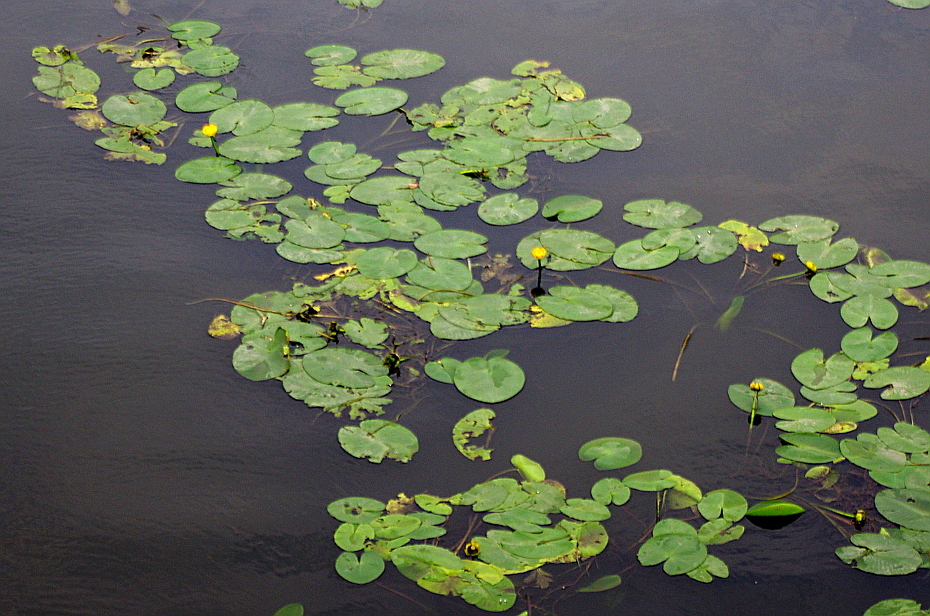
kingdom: Plantae
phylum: Tracheophyta
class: Magnoliopsida
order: Nymphaeales
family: Nymphaeaceae
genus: Nuphar
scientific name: Nuphar lutea
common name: Yellow water-lily
